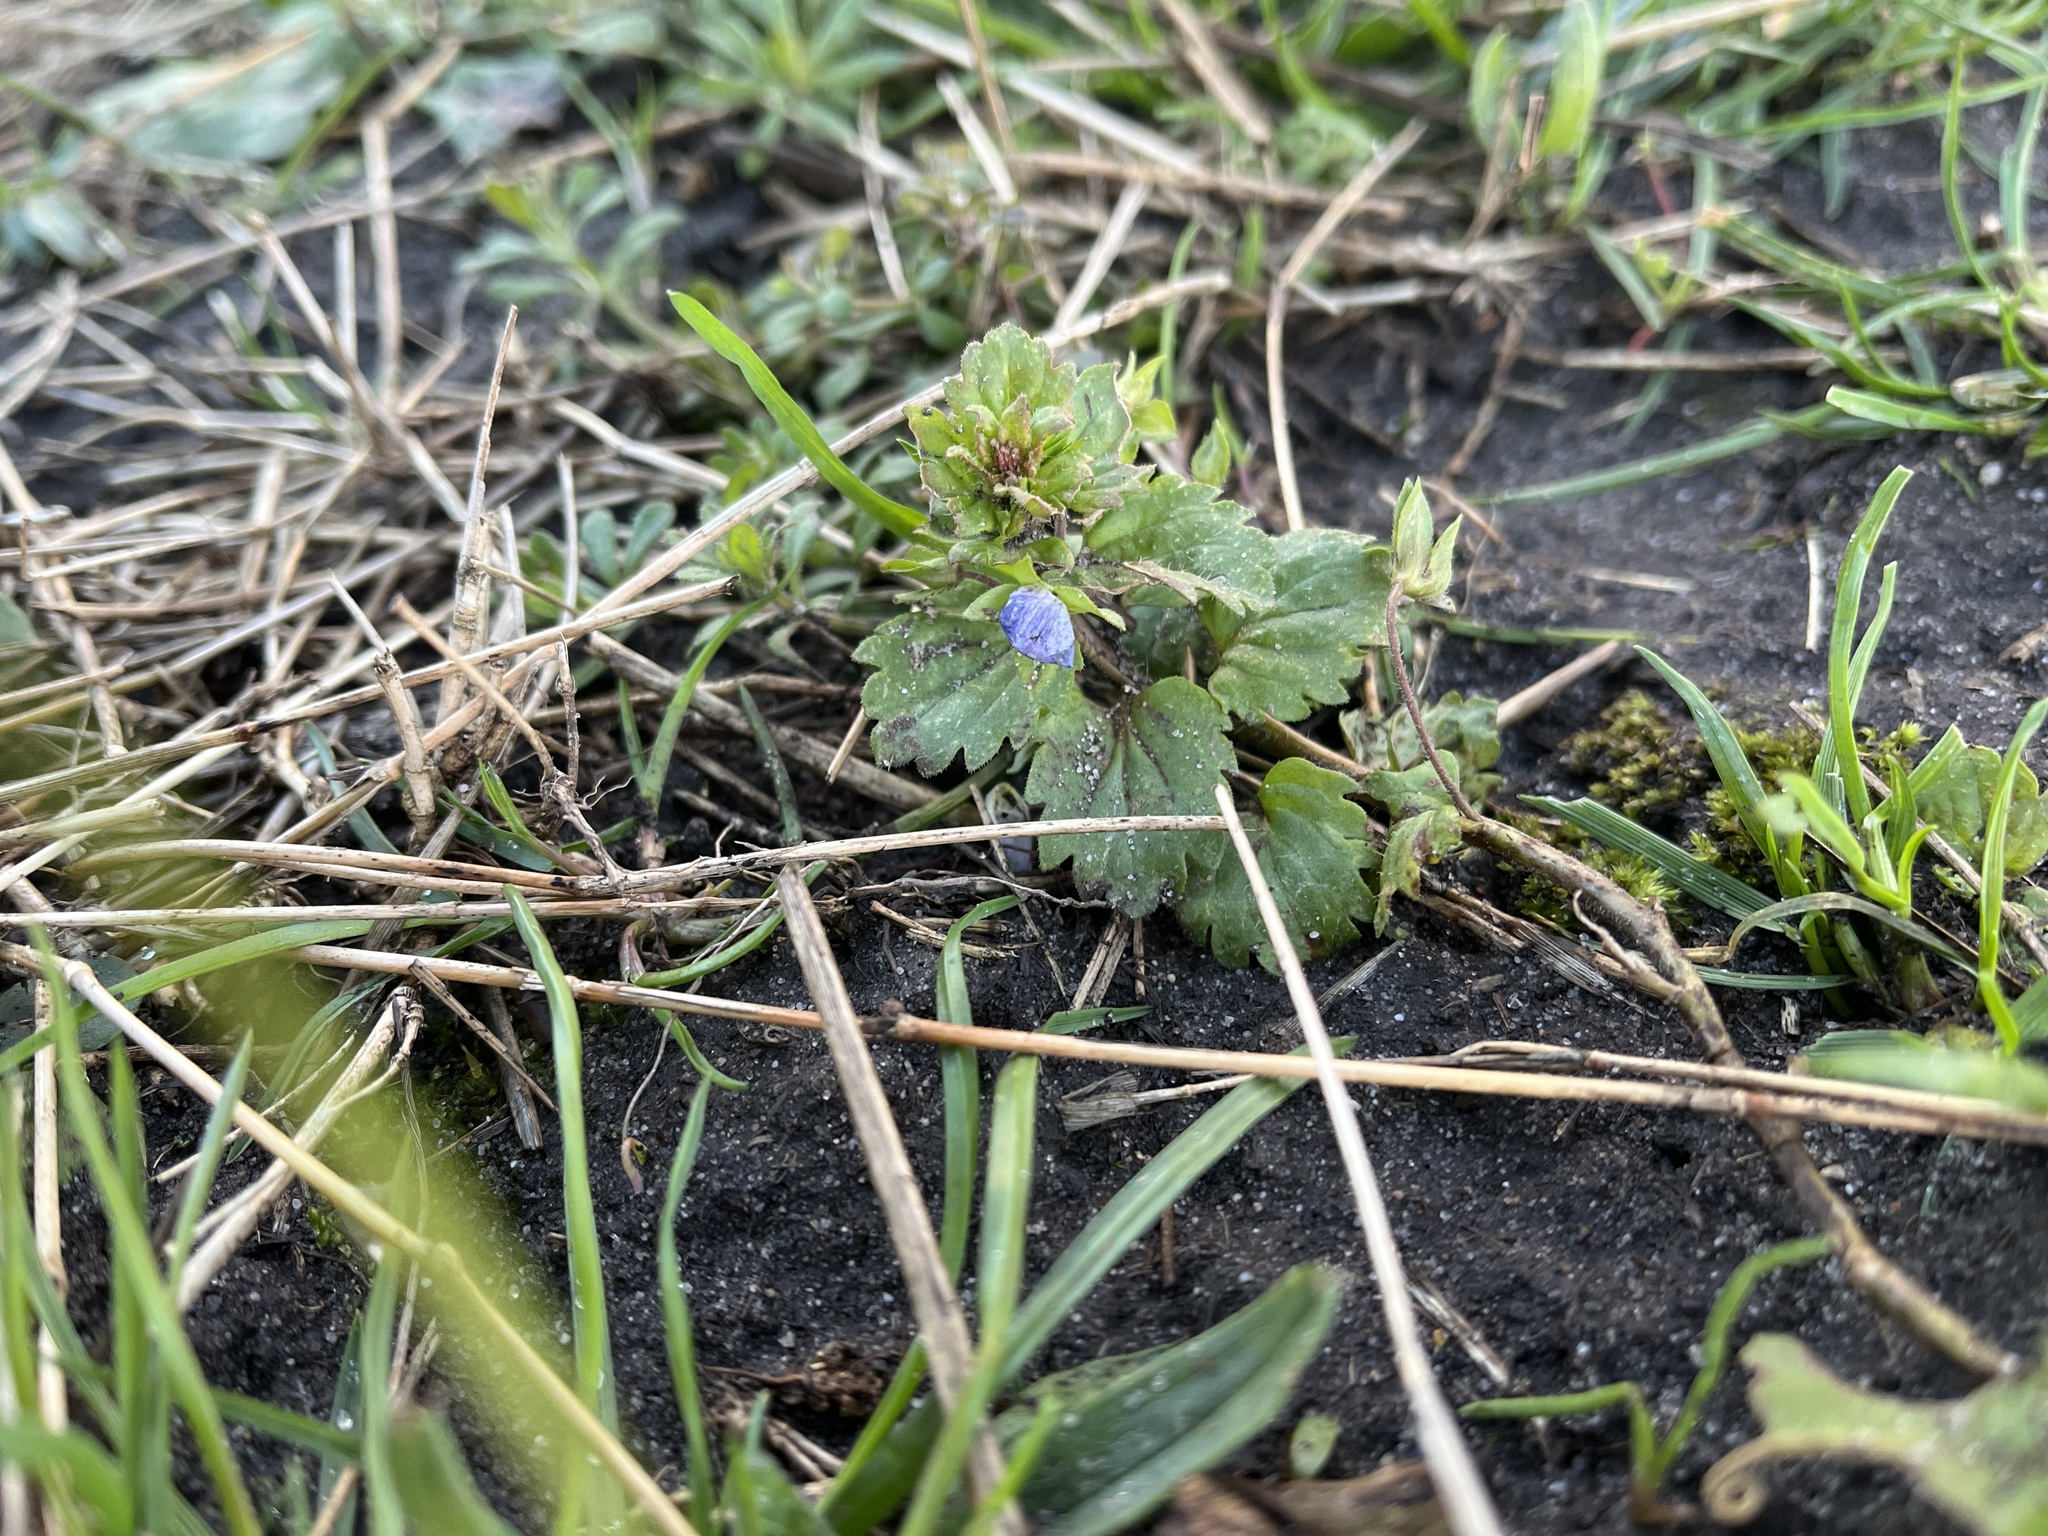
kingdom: Plantae
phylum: Tracheophyta
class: Magnoliopsida
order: Lamiales
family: Plantaginaceae
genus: Veronica
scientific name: Veronica persica
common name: Common field-speedwell
